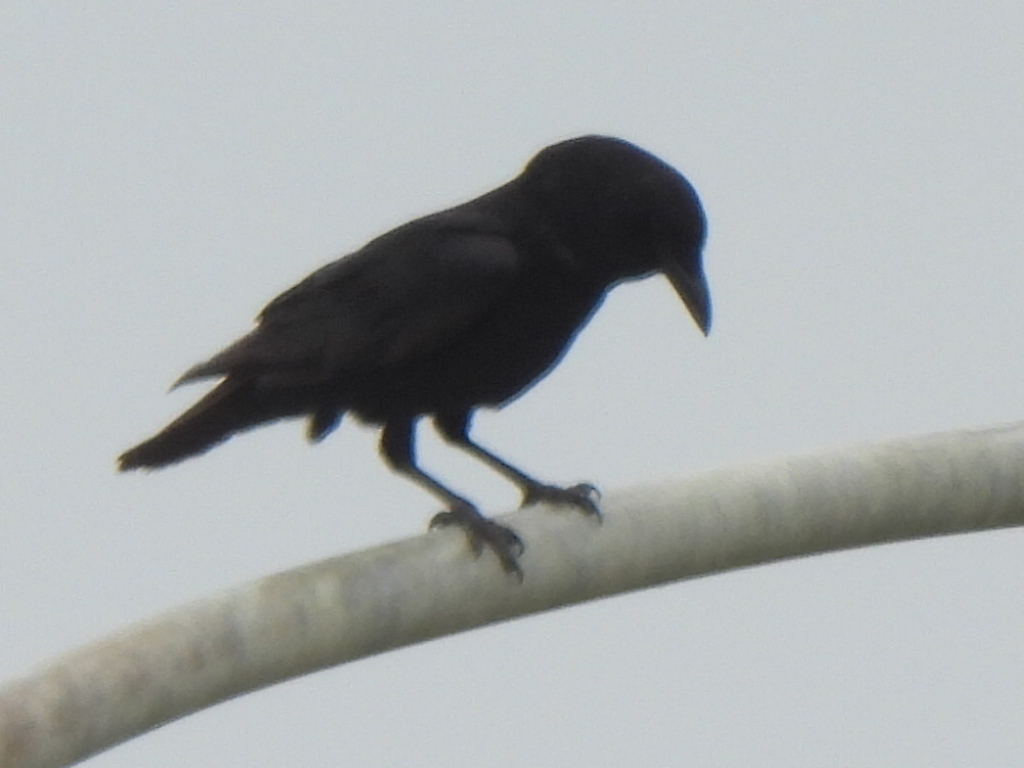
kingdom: Animalia
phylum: Chordata
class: Aves
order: Passeriformes
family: Corvidae
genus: Corvus
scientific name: Corvus brachyrhynchos
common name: American crow
